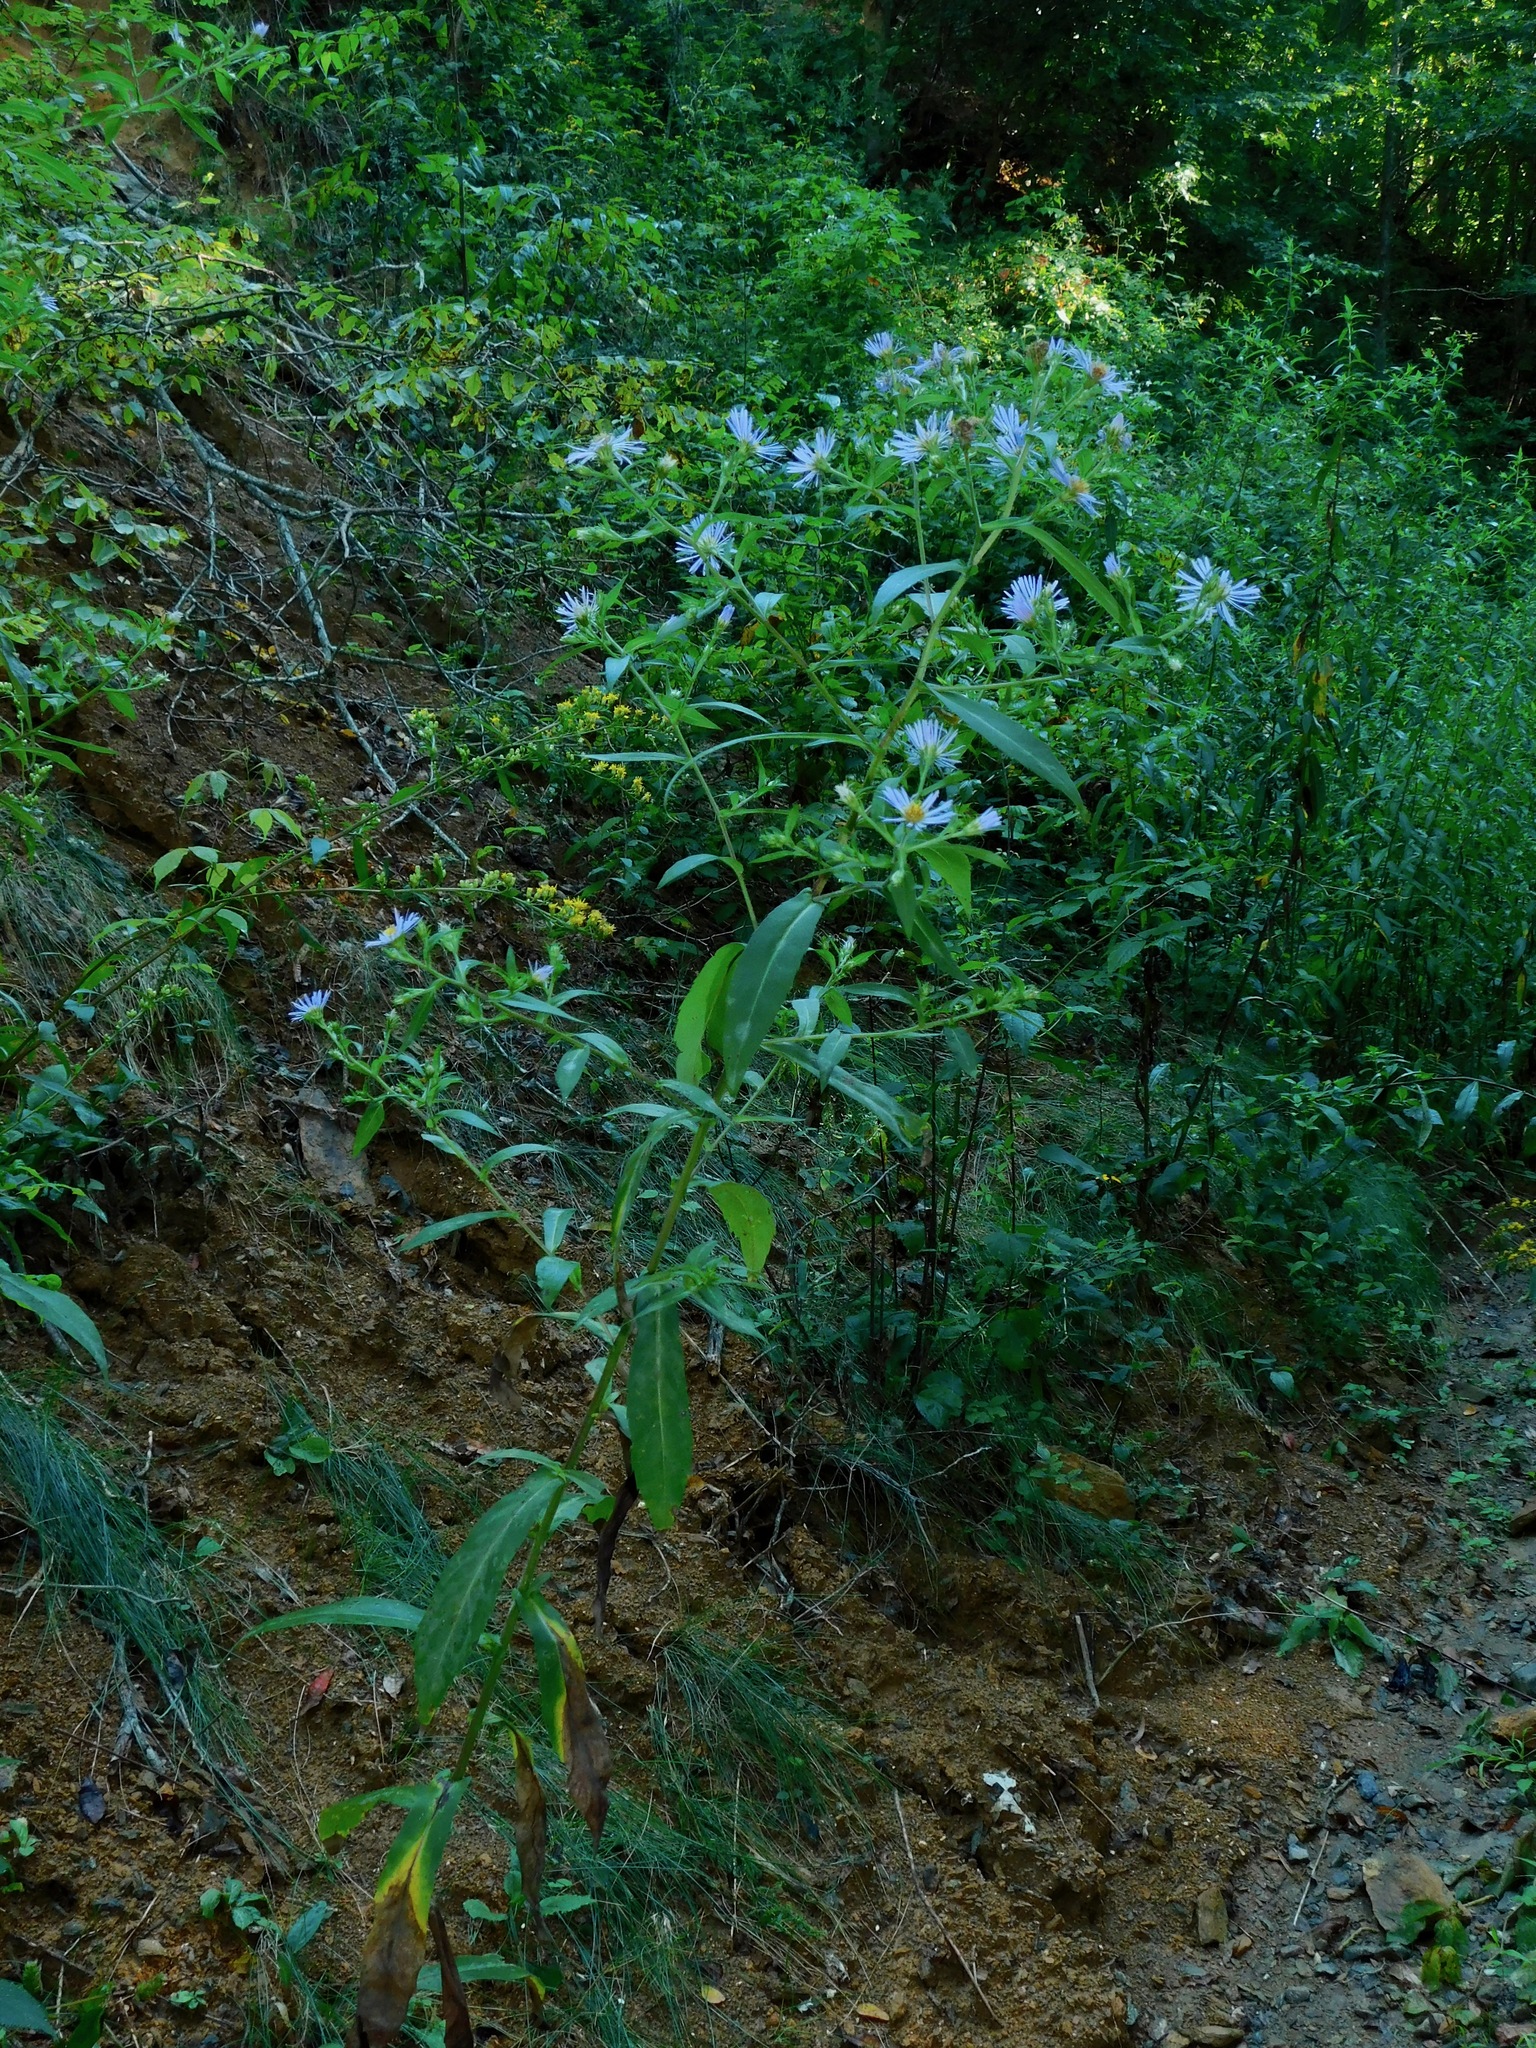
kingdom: Plantae
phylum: Tracheophyta
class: Magnoliopsida
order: Asterales
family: Asteraceae
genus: Symphyotrichum
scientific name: Symphyotrichum puniceum
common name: Bog aster
